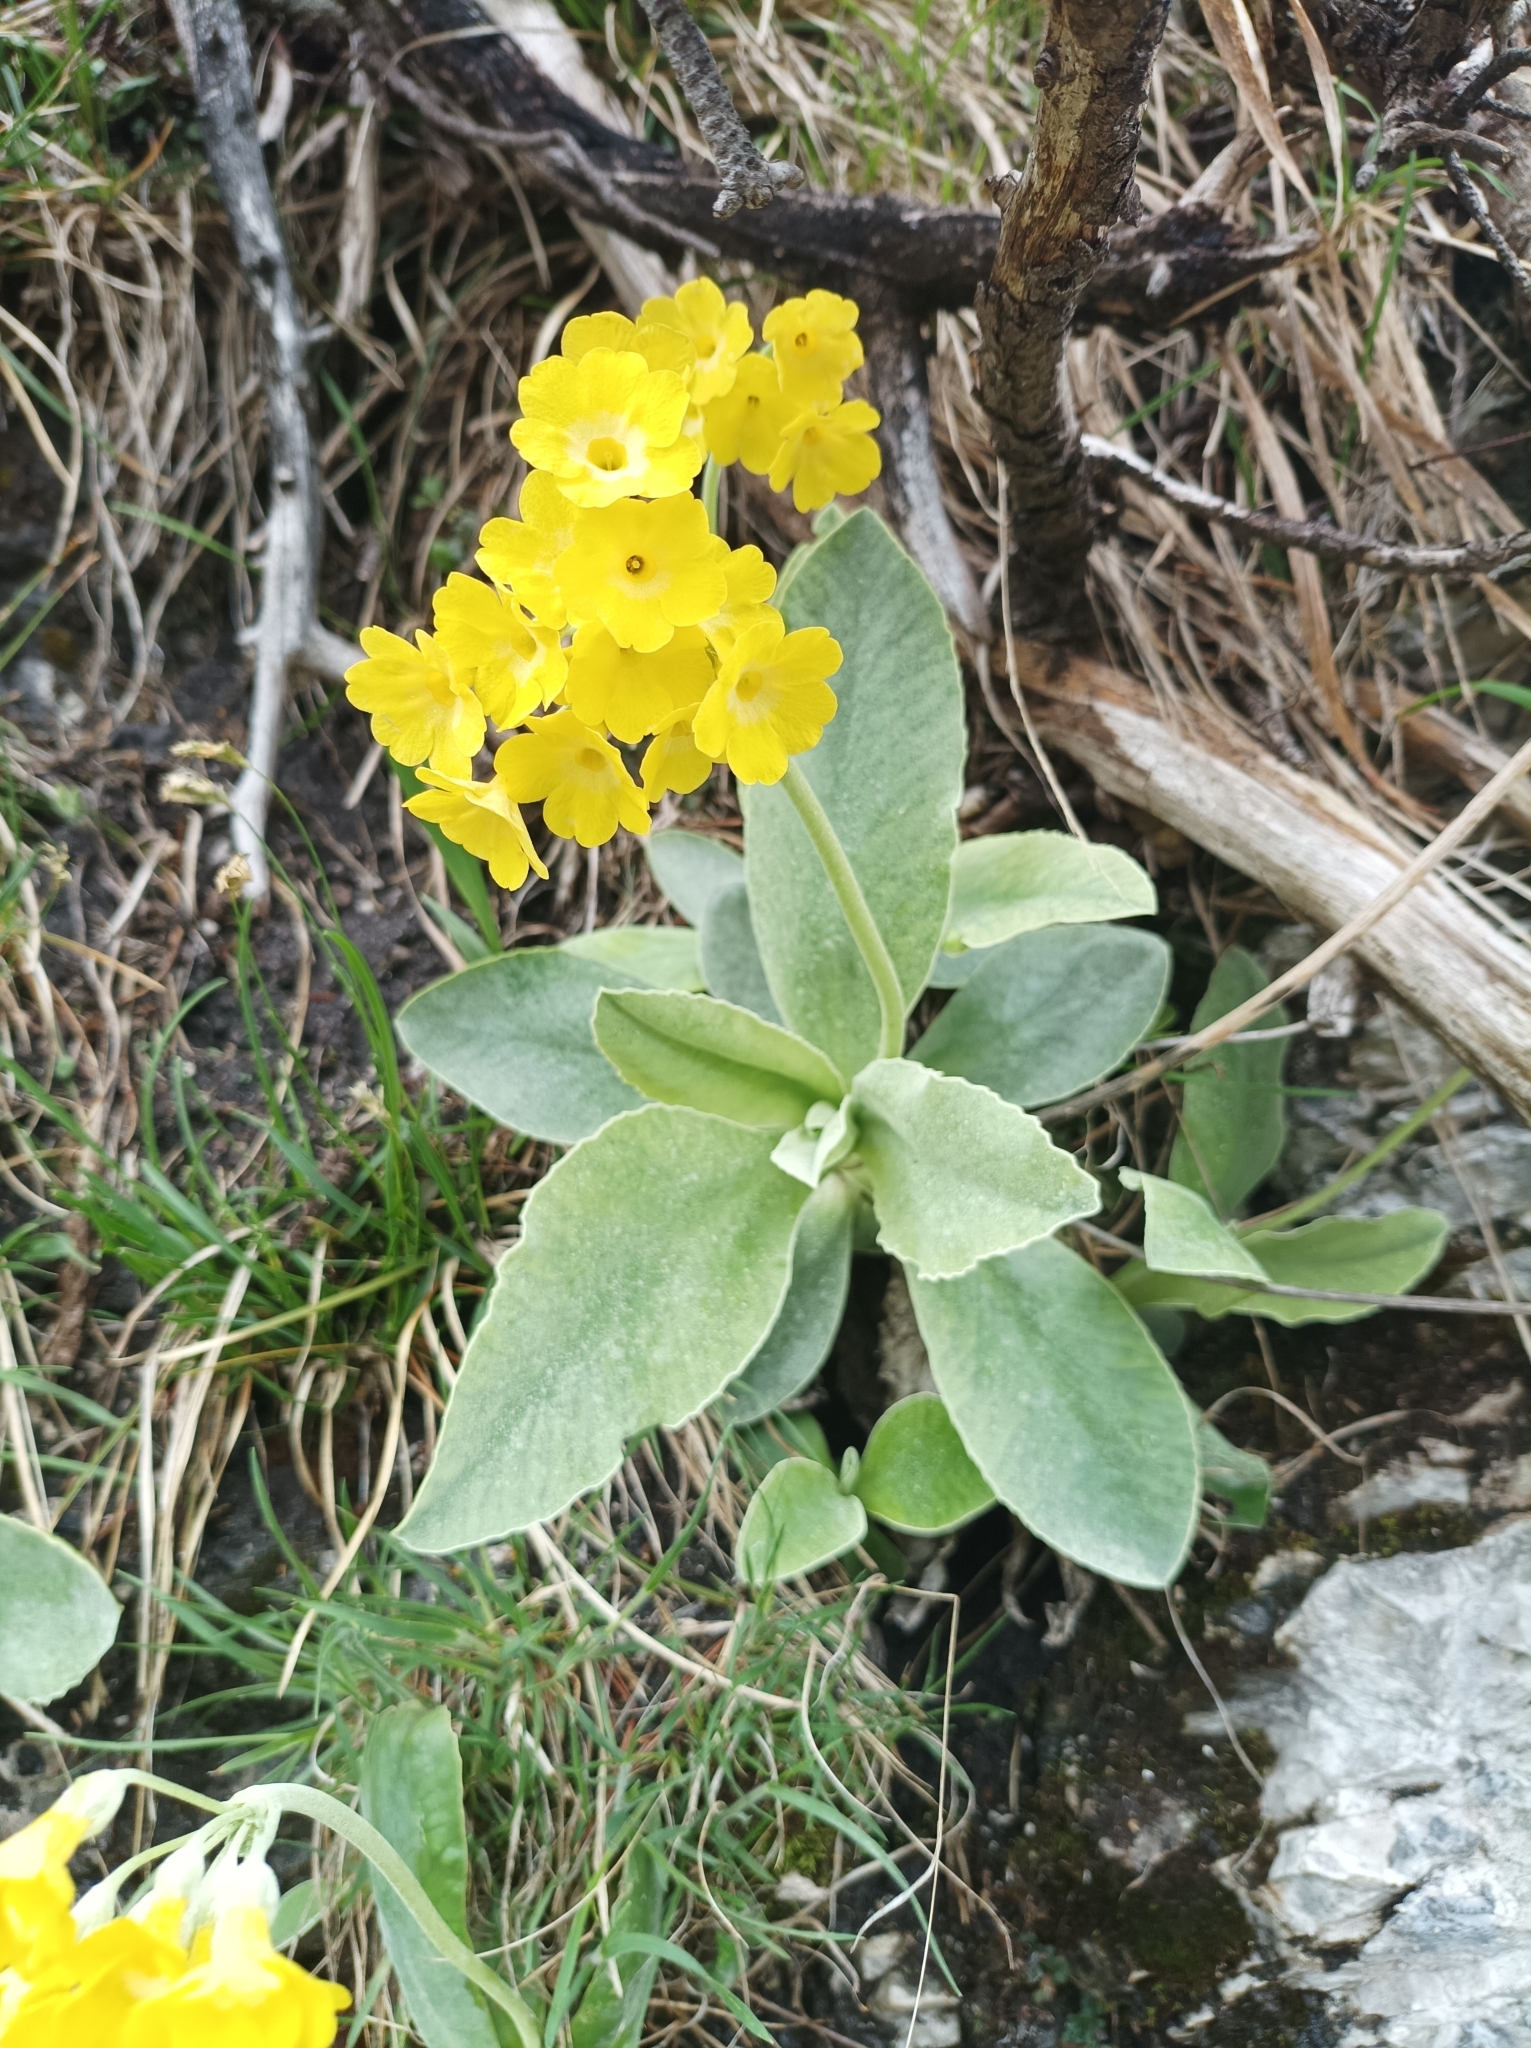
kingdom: Plantae
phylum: Tracheophyta
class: Magnoliopsida
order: Ericales
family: Primulaceae
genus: Primula
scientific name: Primula auricula
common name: Auricula
